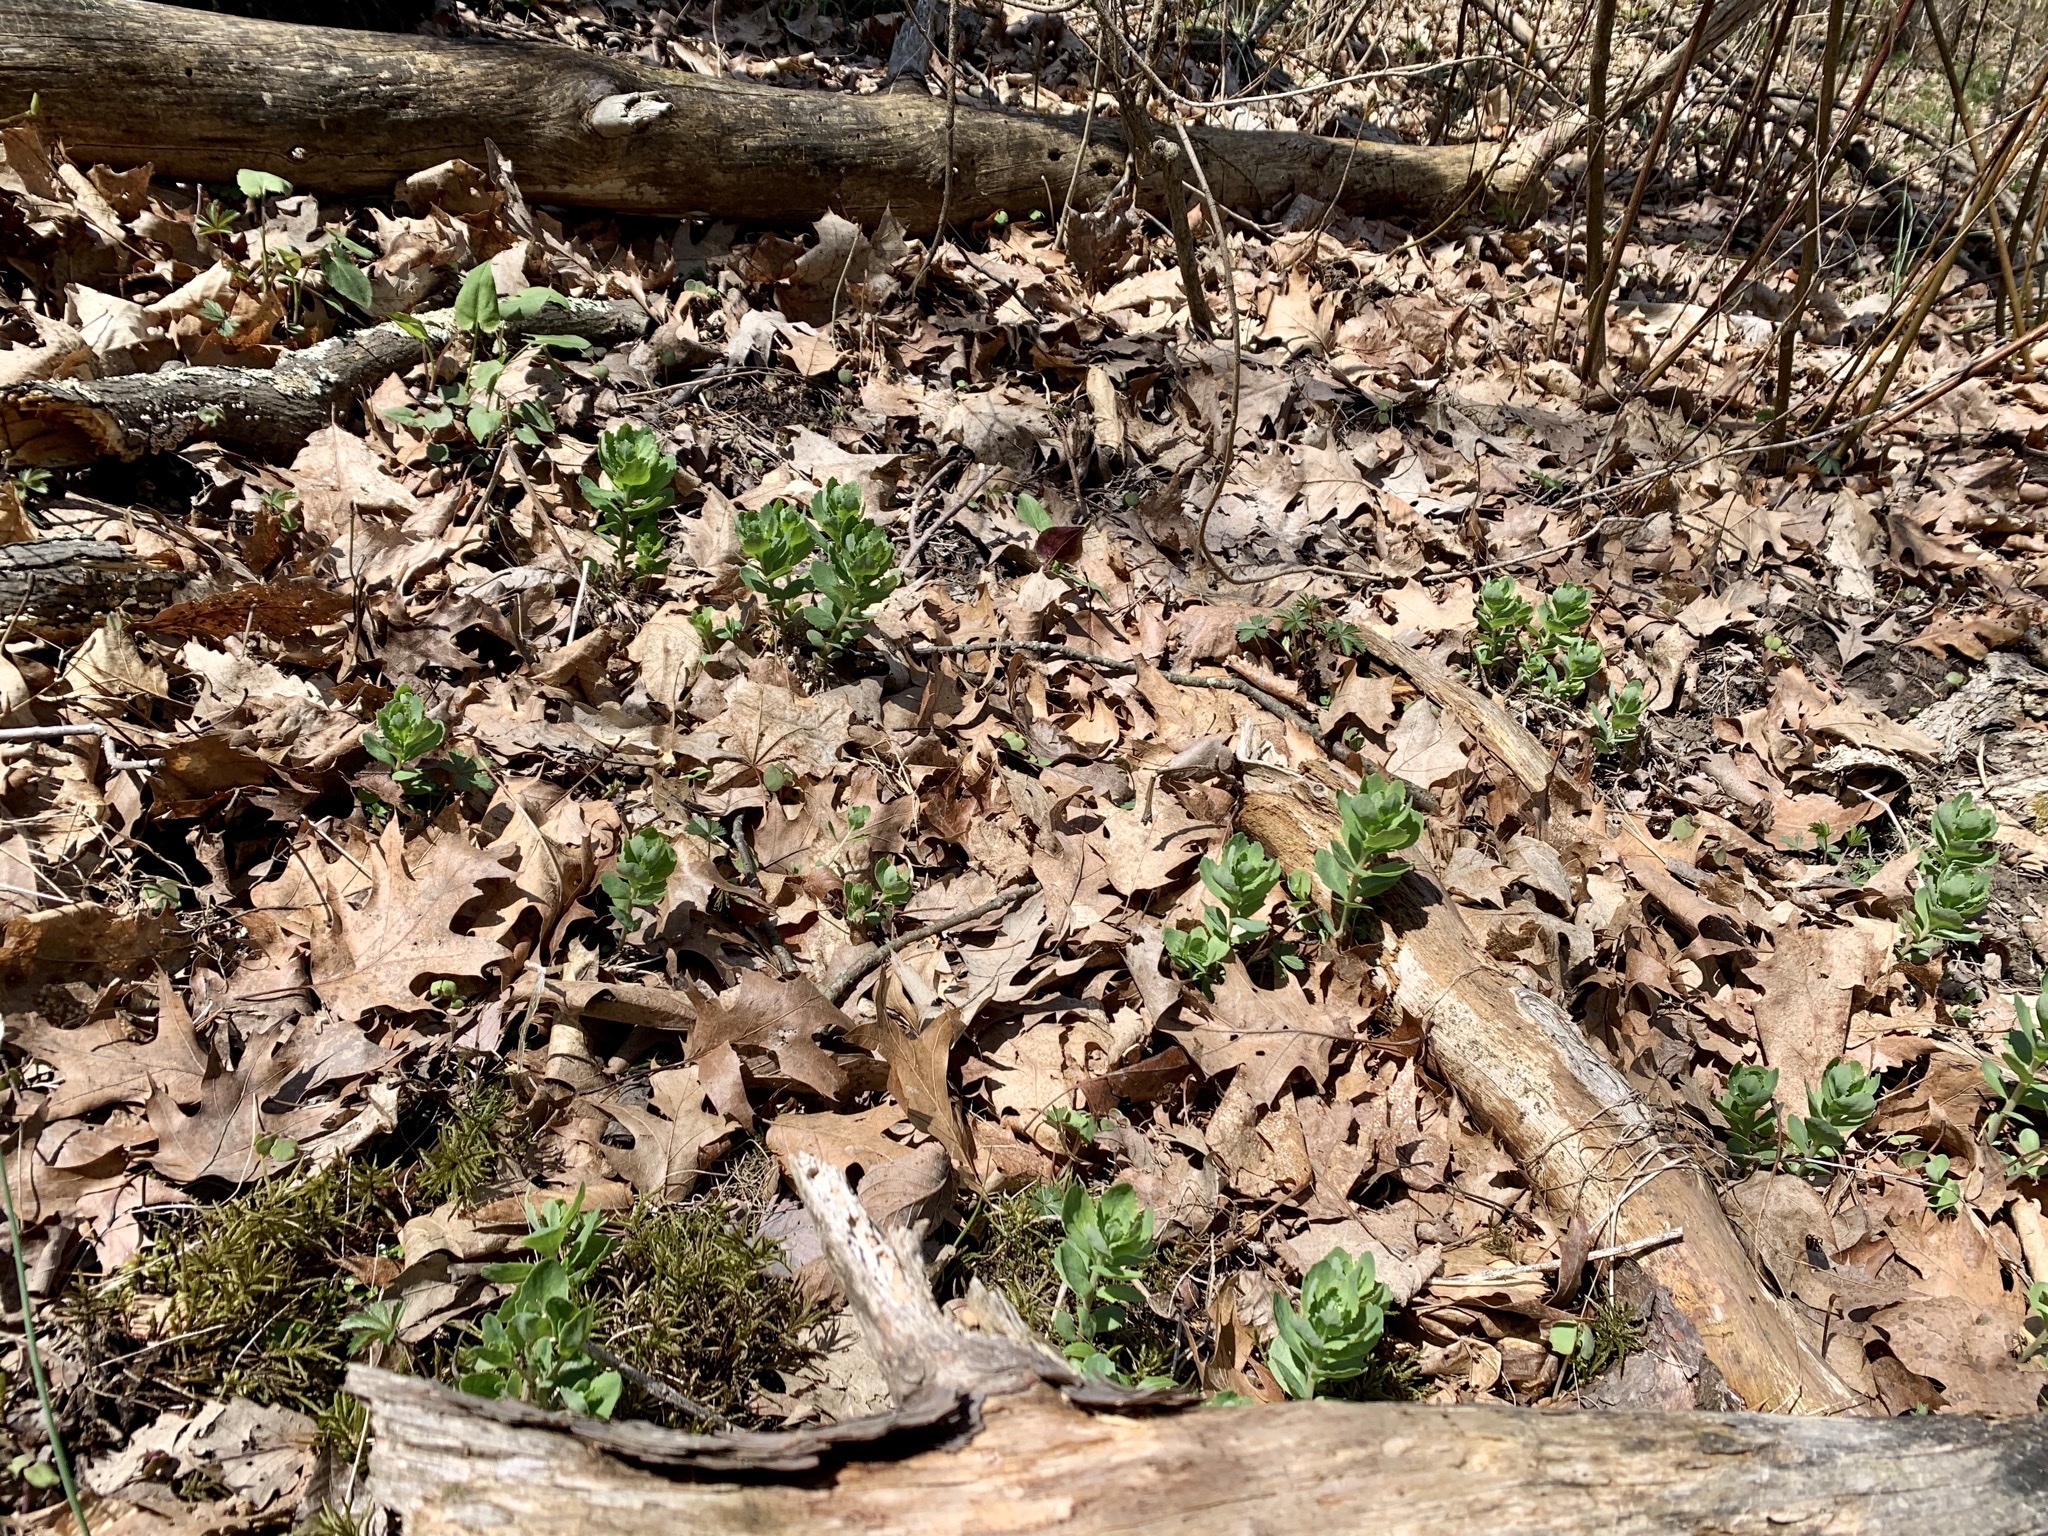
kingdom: Plantae
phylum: Tracheophyta
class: Magnoliopsida
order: Saxifragales
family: Crassulaceae
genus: Hylotelephium
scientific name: Hylotelephium telephium
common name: Live-forever
